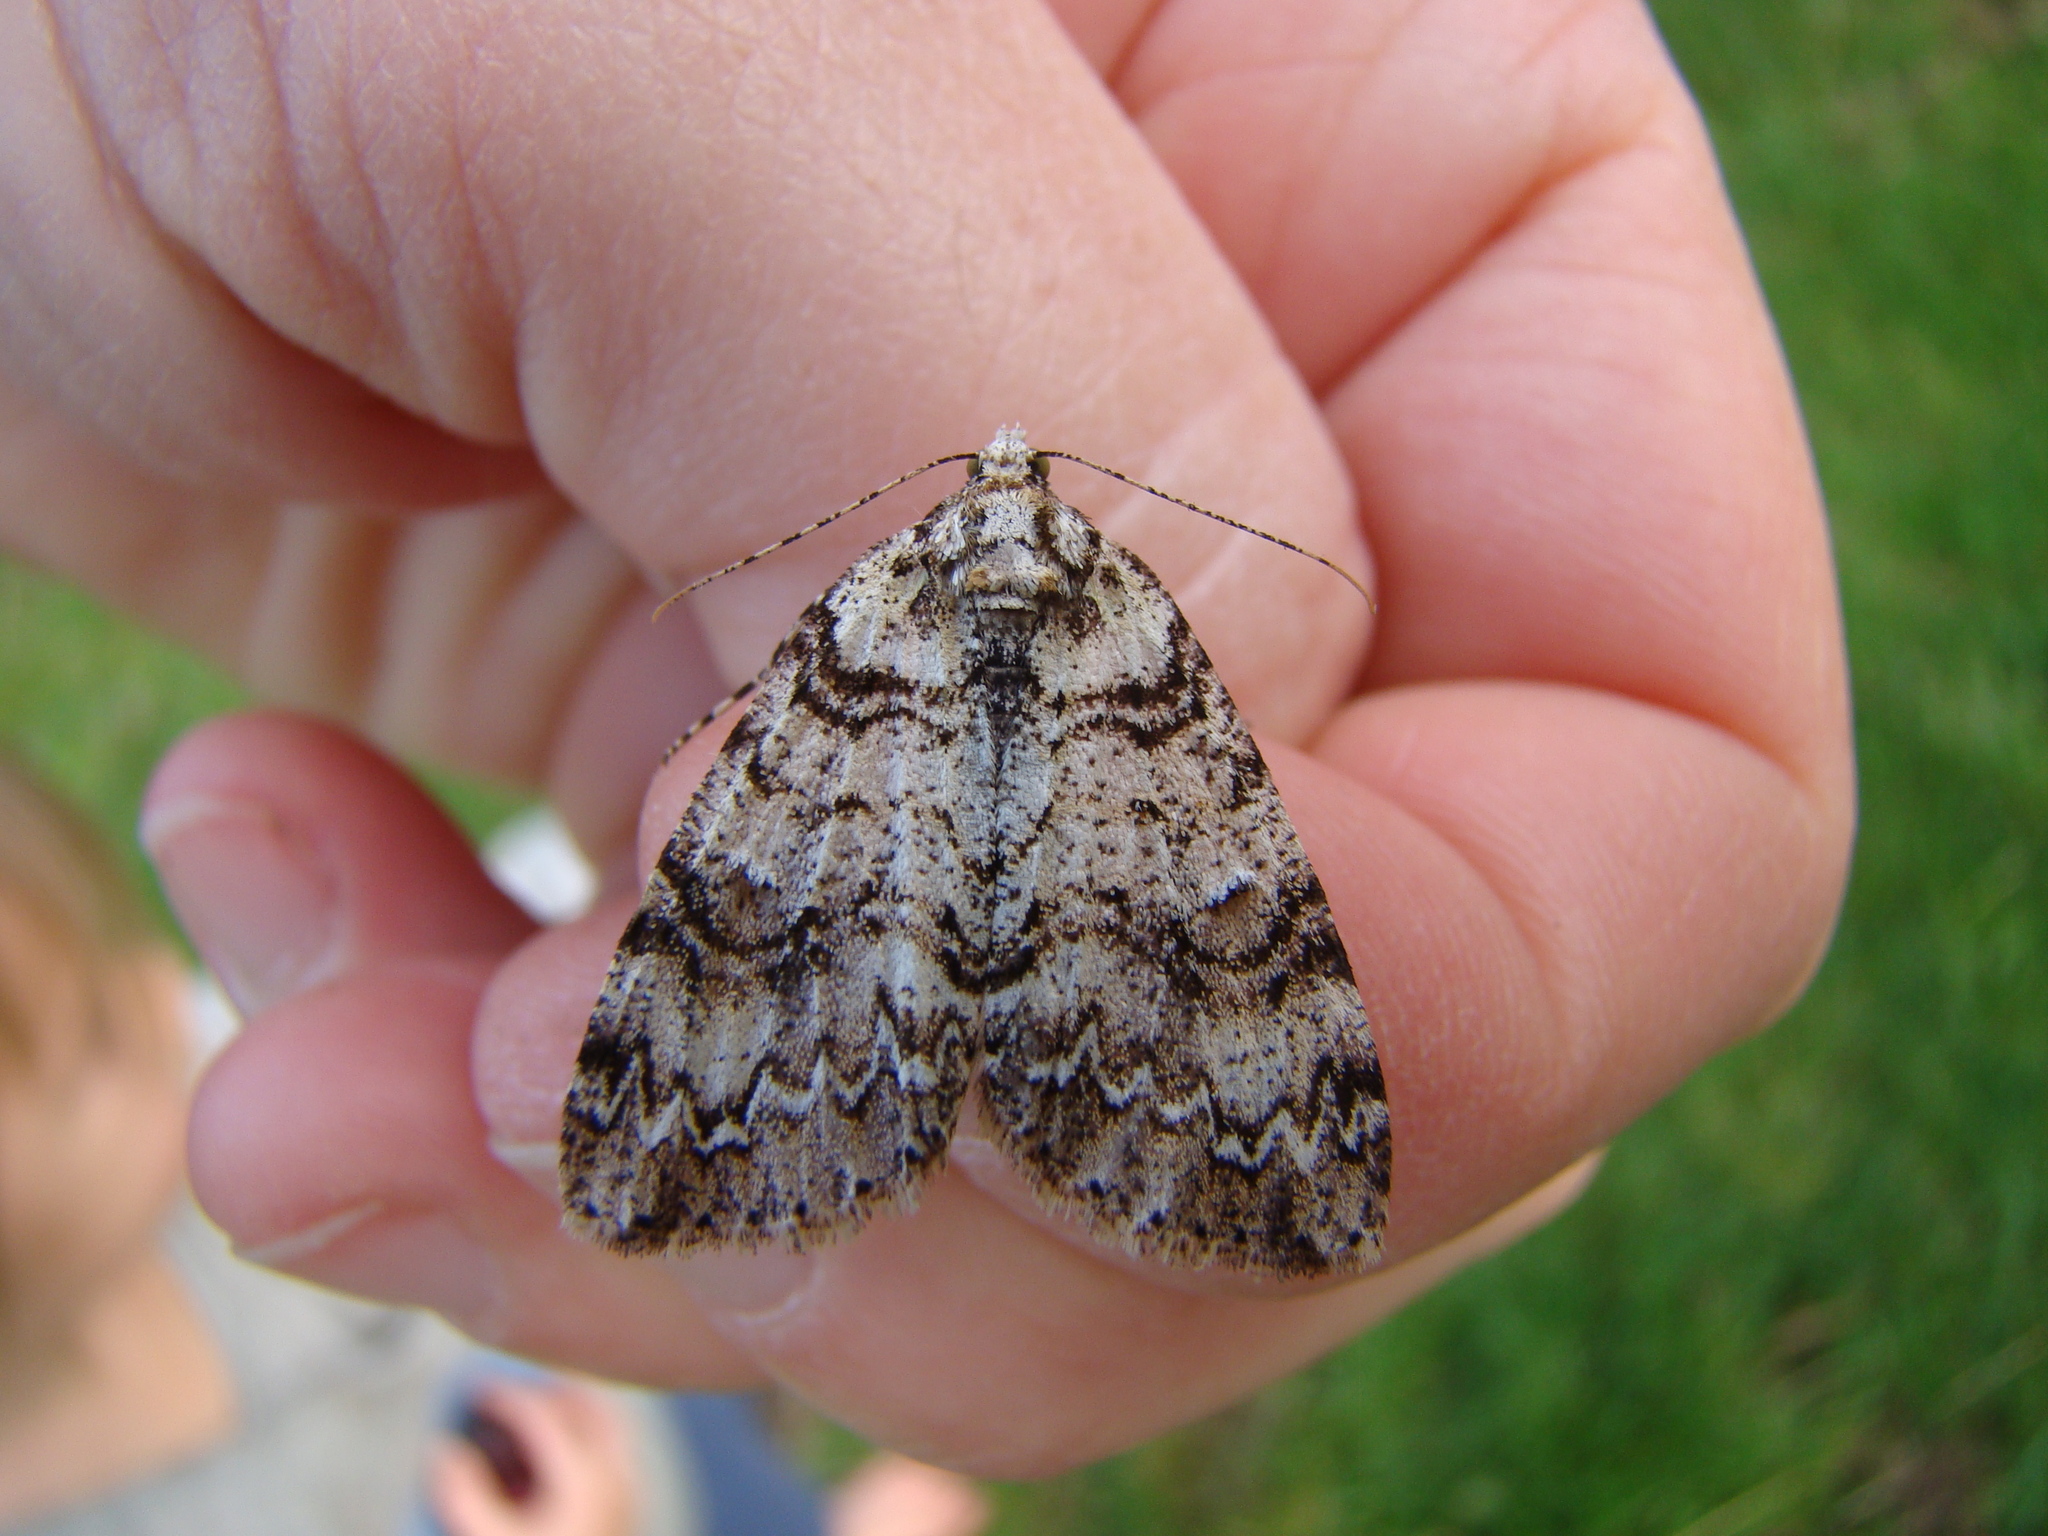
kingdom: Animalia
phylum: Arthropoda
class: Insecta
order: Lepidoptera
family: Geometridae
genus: Pseudocoremia
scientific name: Pseudocoremia suavis
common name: Common forest looper
